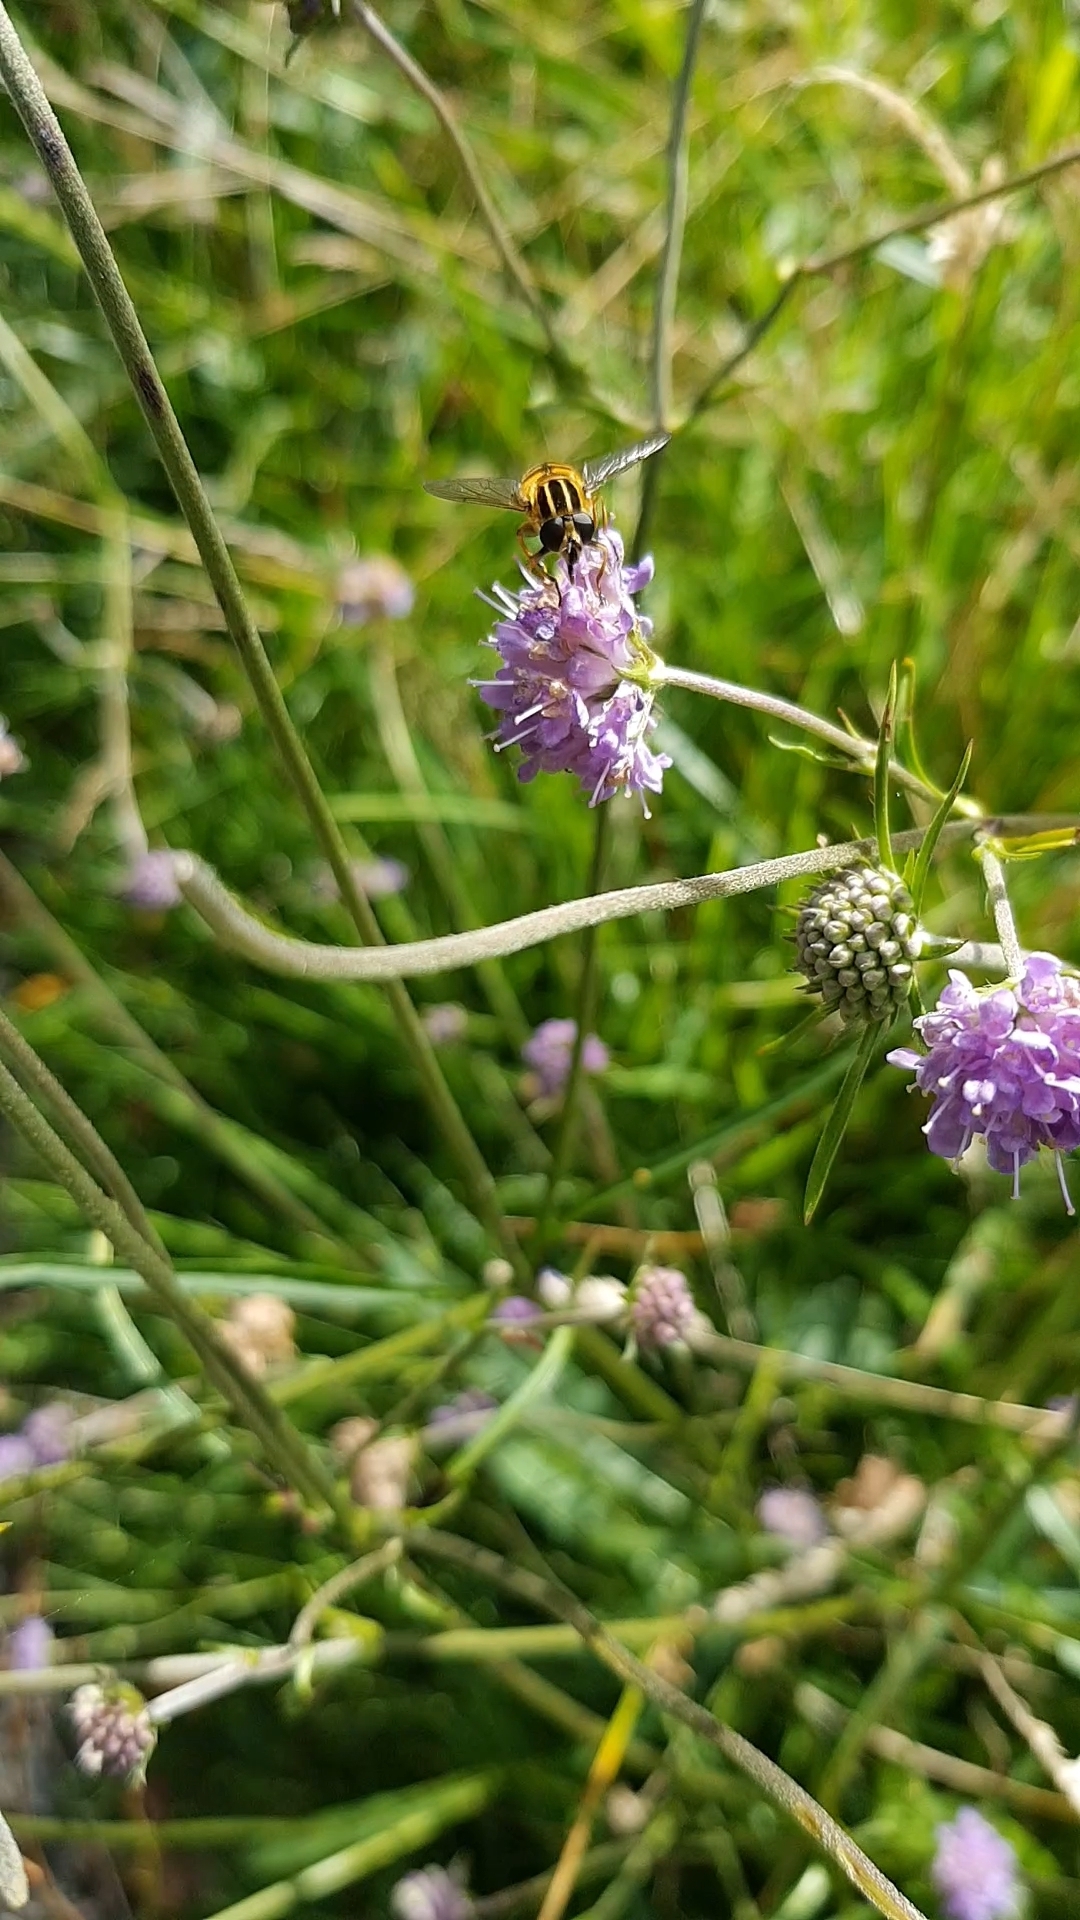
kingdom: Animalia
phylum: Arthropoda
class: Insecta
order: Diptera
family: Syrphidae
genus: Helophilus
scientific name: Helophilus pendulus
